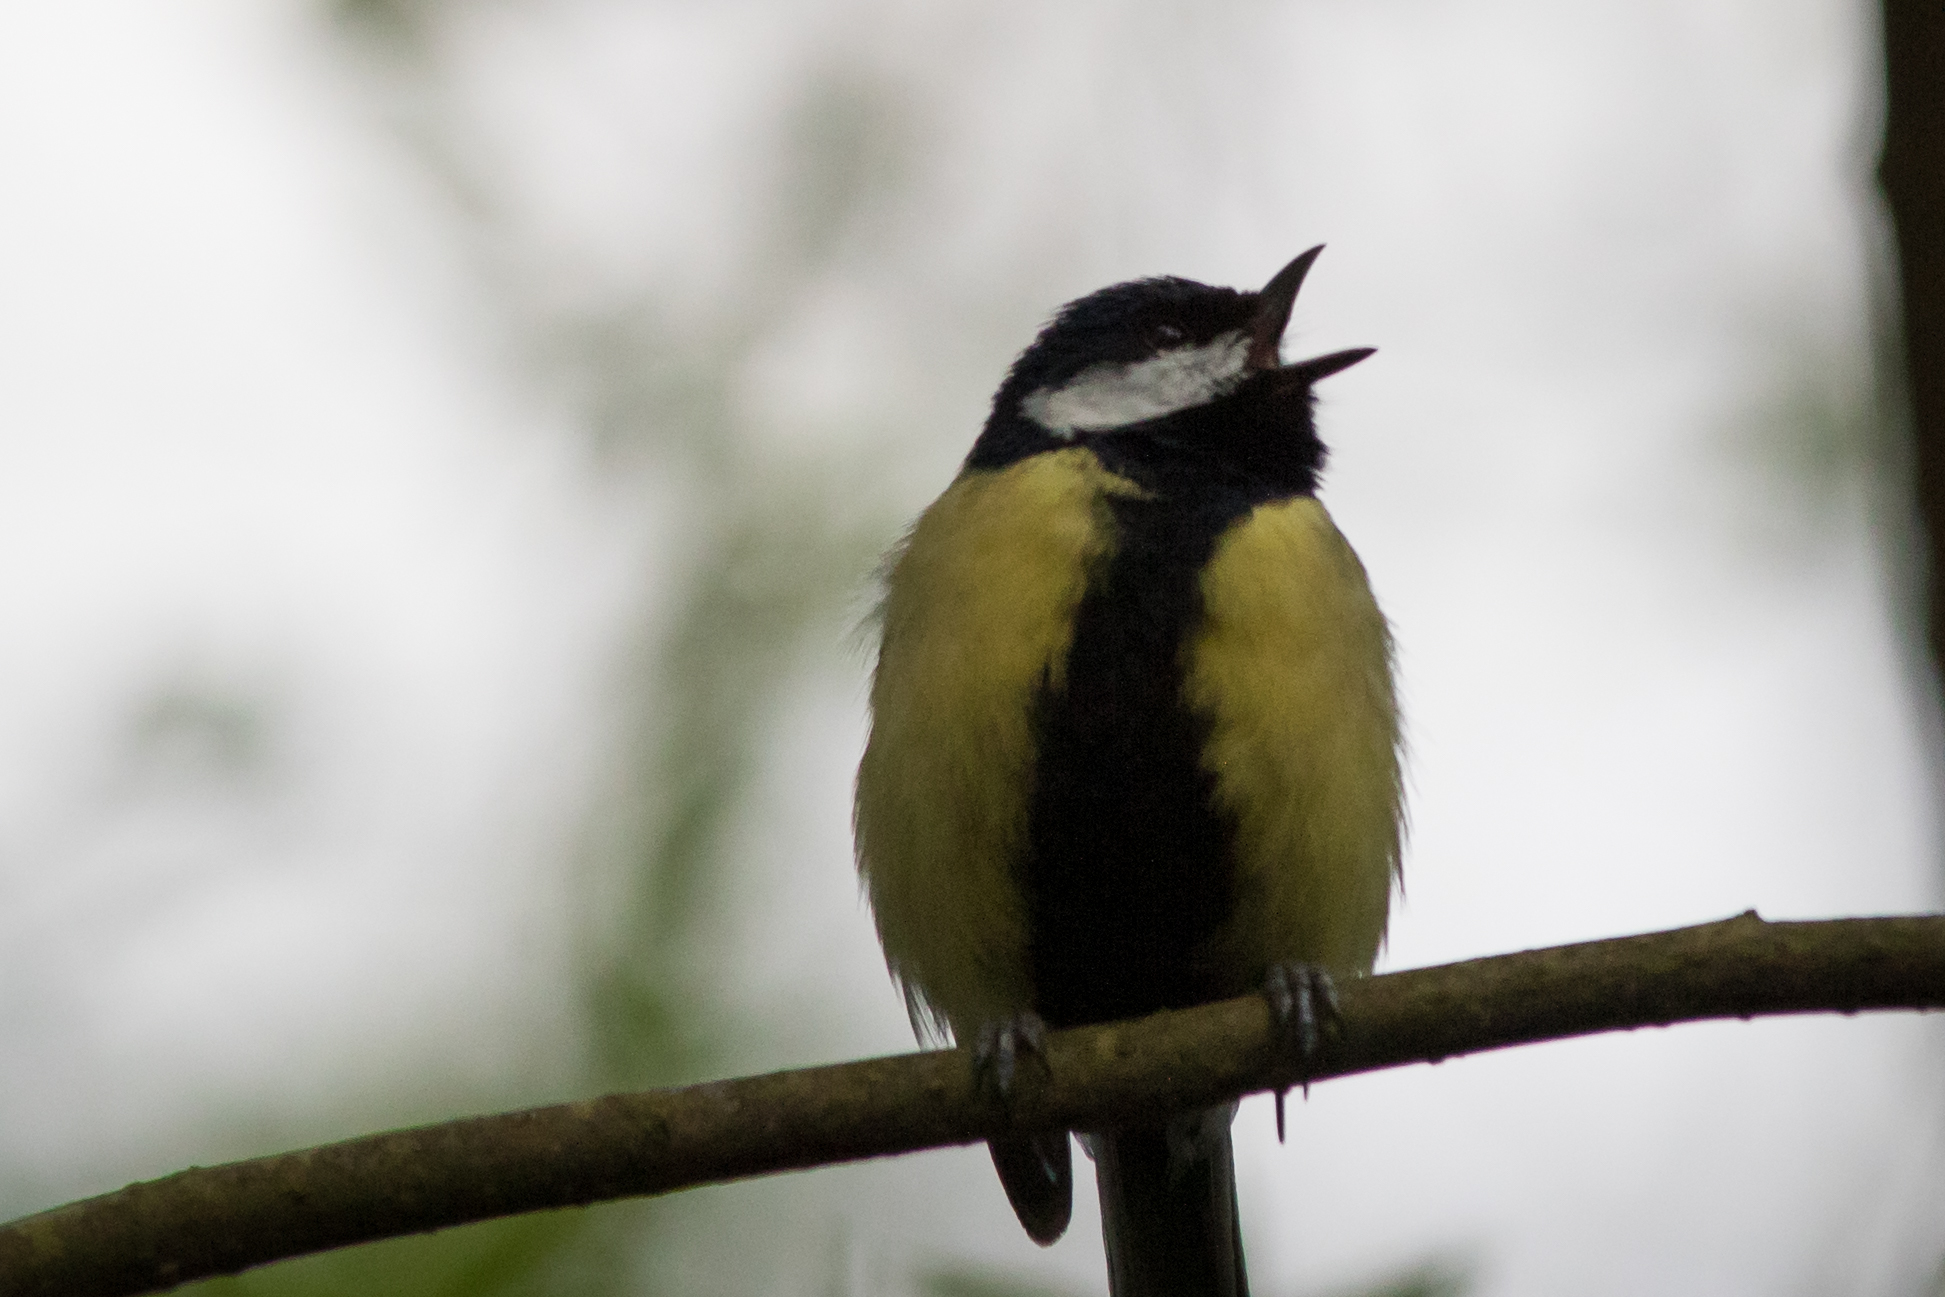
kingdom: Animalia
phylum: Chordata
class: Aves
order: Passeriformes
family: Paridae
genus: Parus
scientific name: Parus major
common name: Great tit
